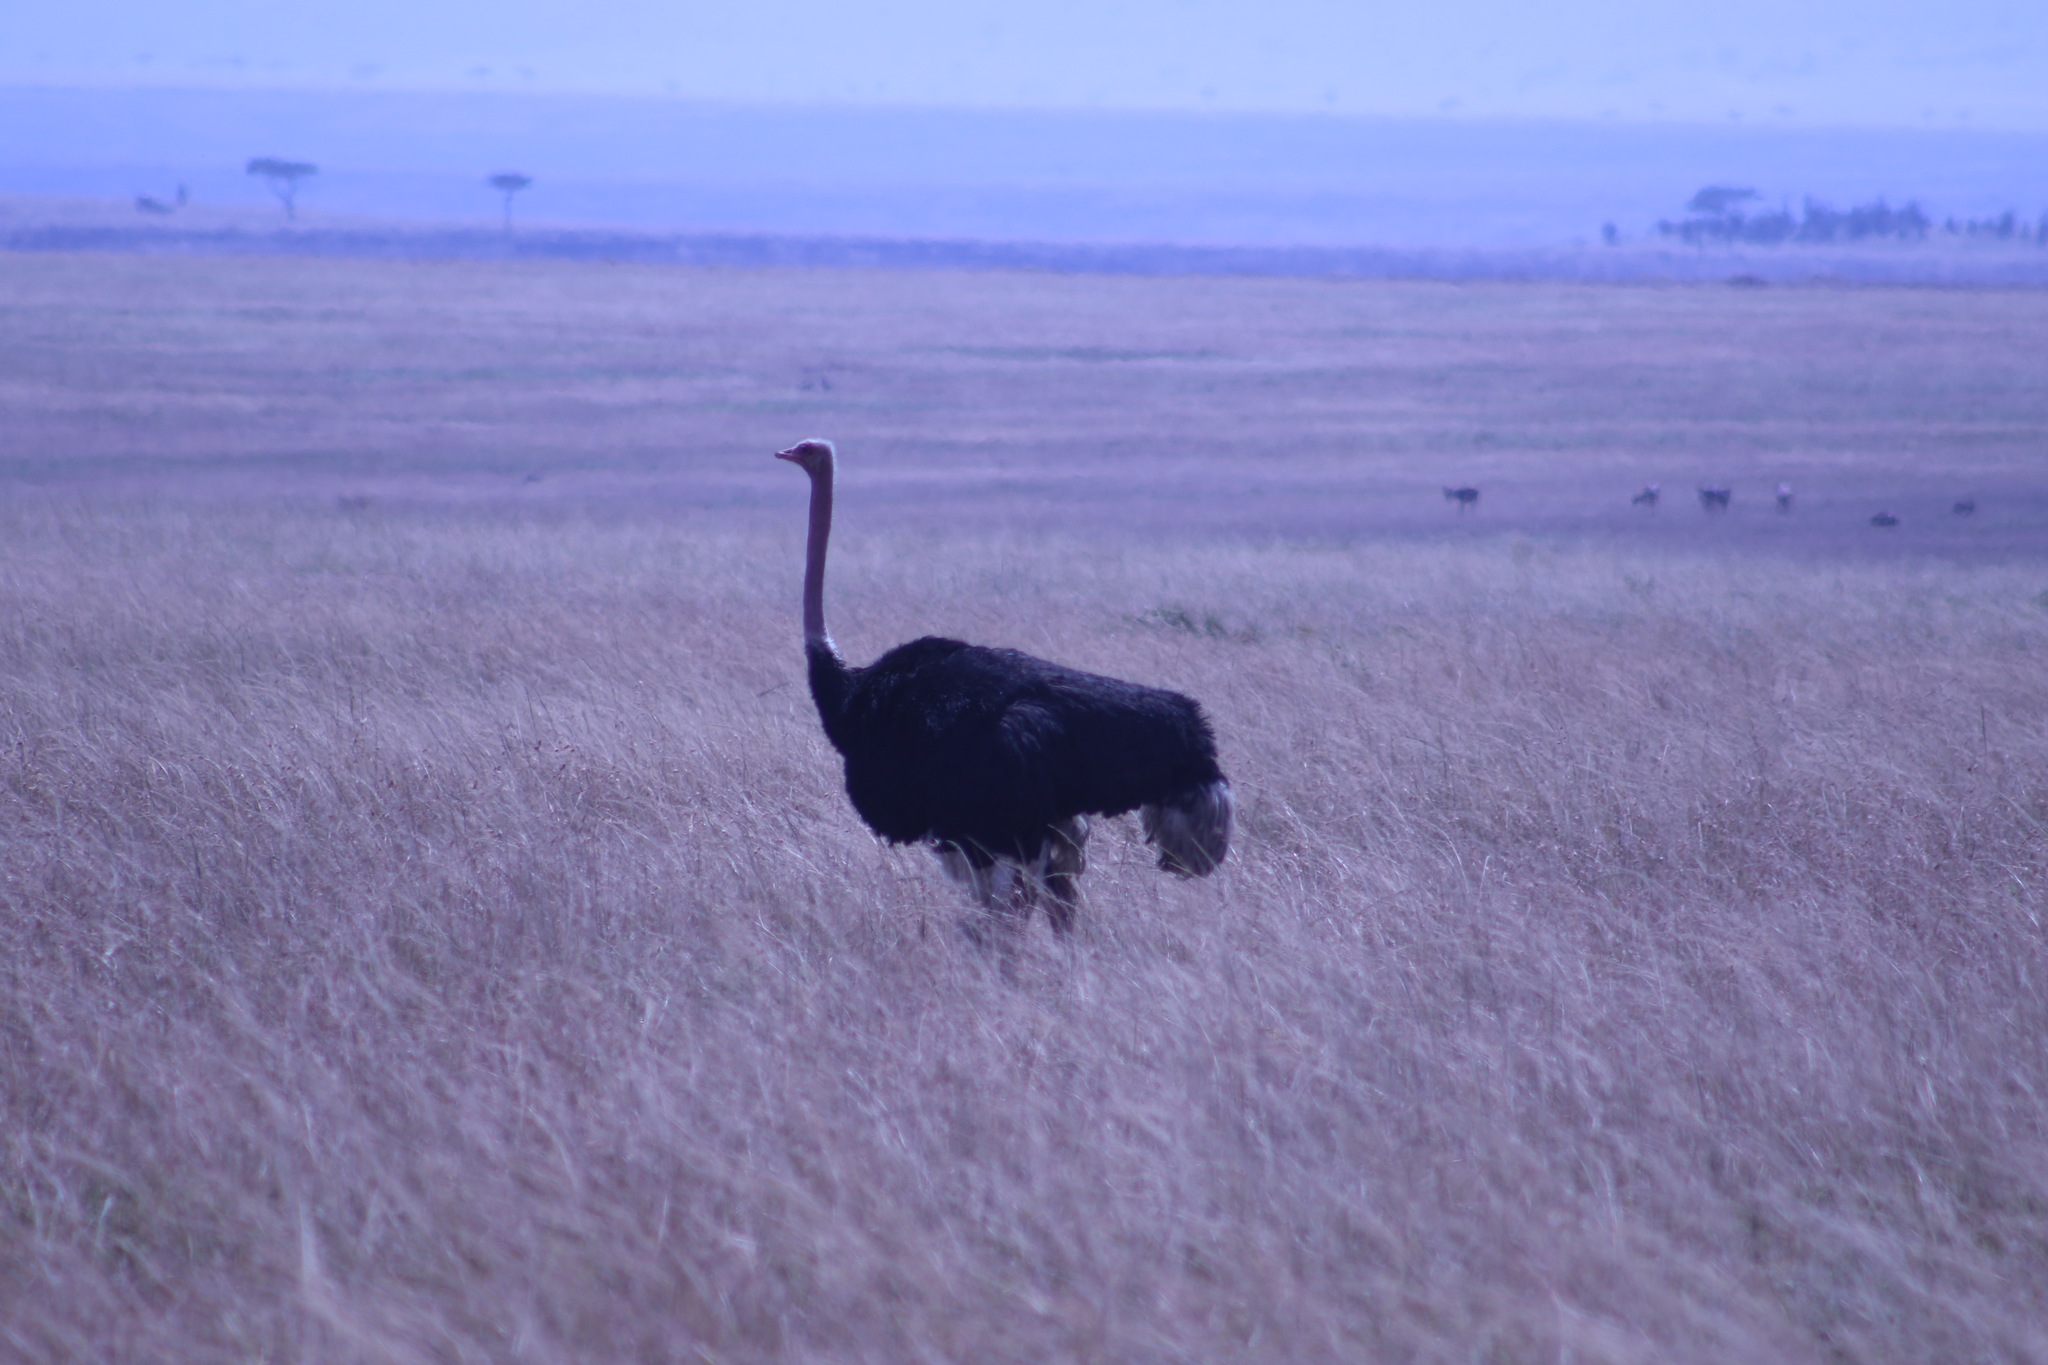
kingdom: Animalia
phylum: Chordata
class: Aves
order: Struthioniformes
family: Struthionidae
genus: Struthio
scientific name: Struthio camelus
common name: Common ostrich
